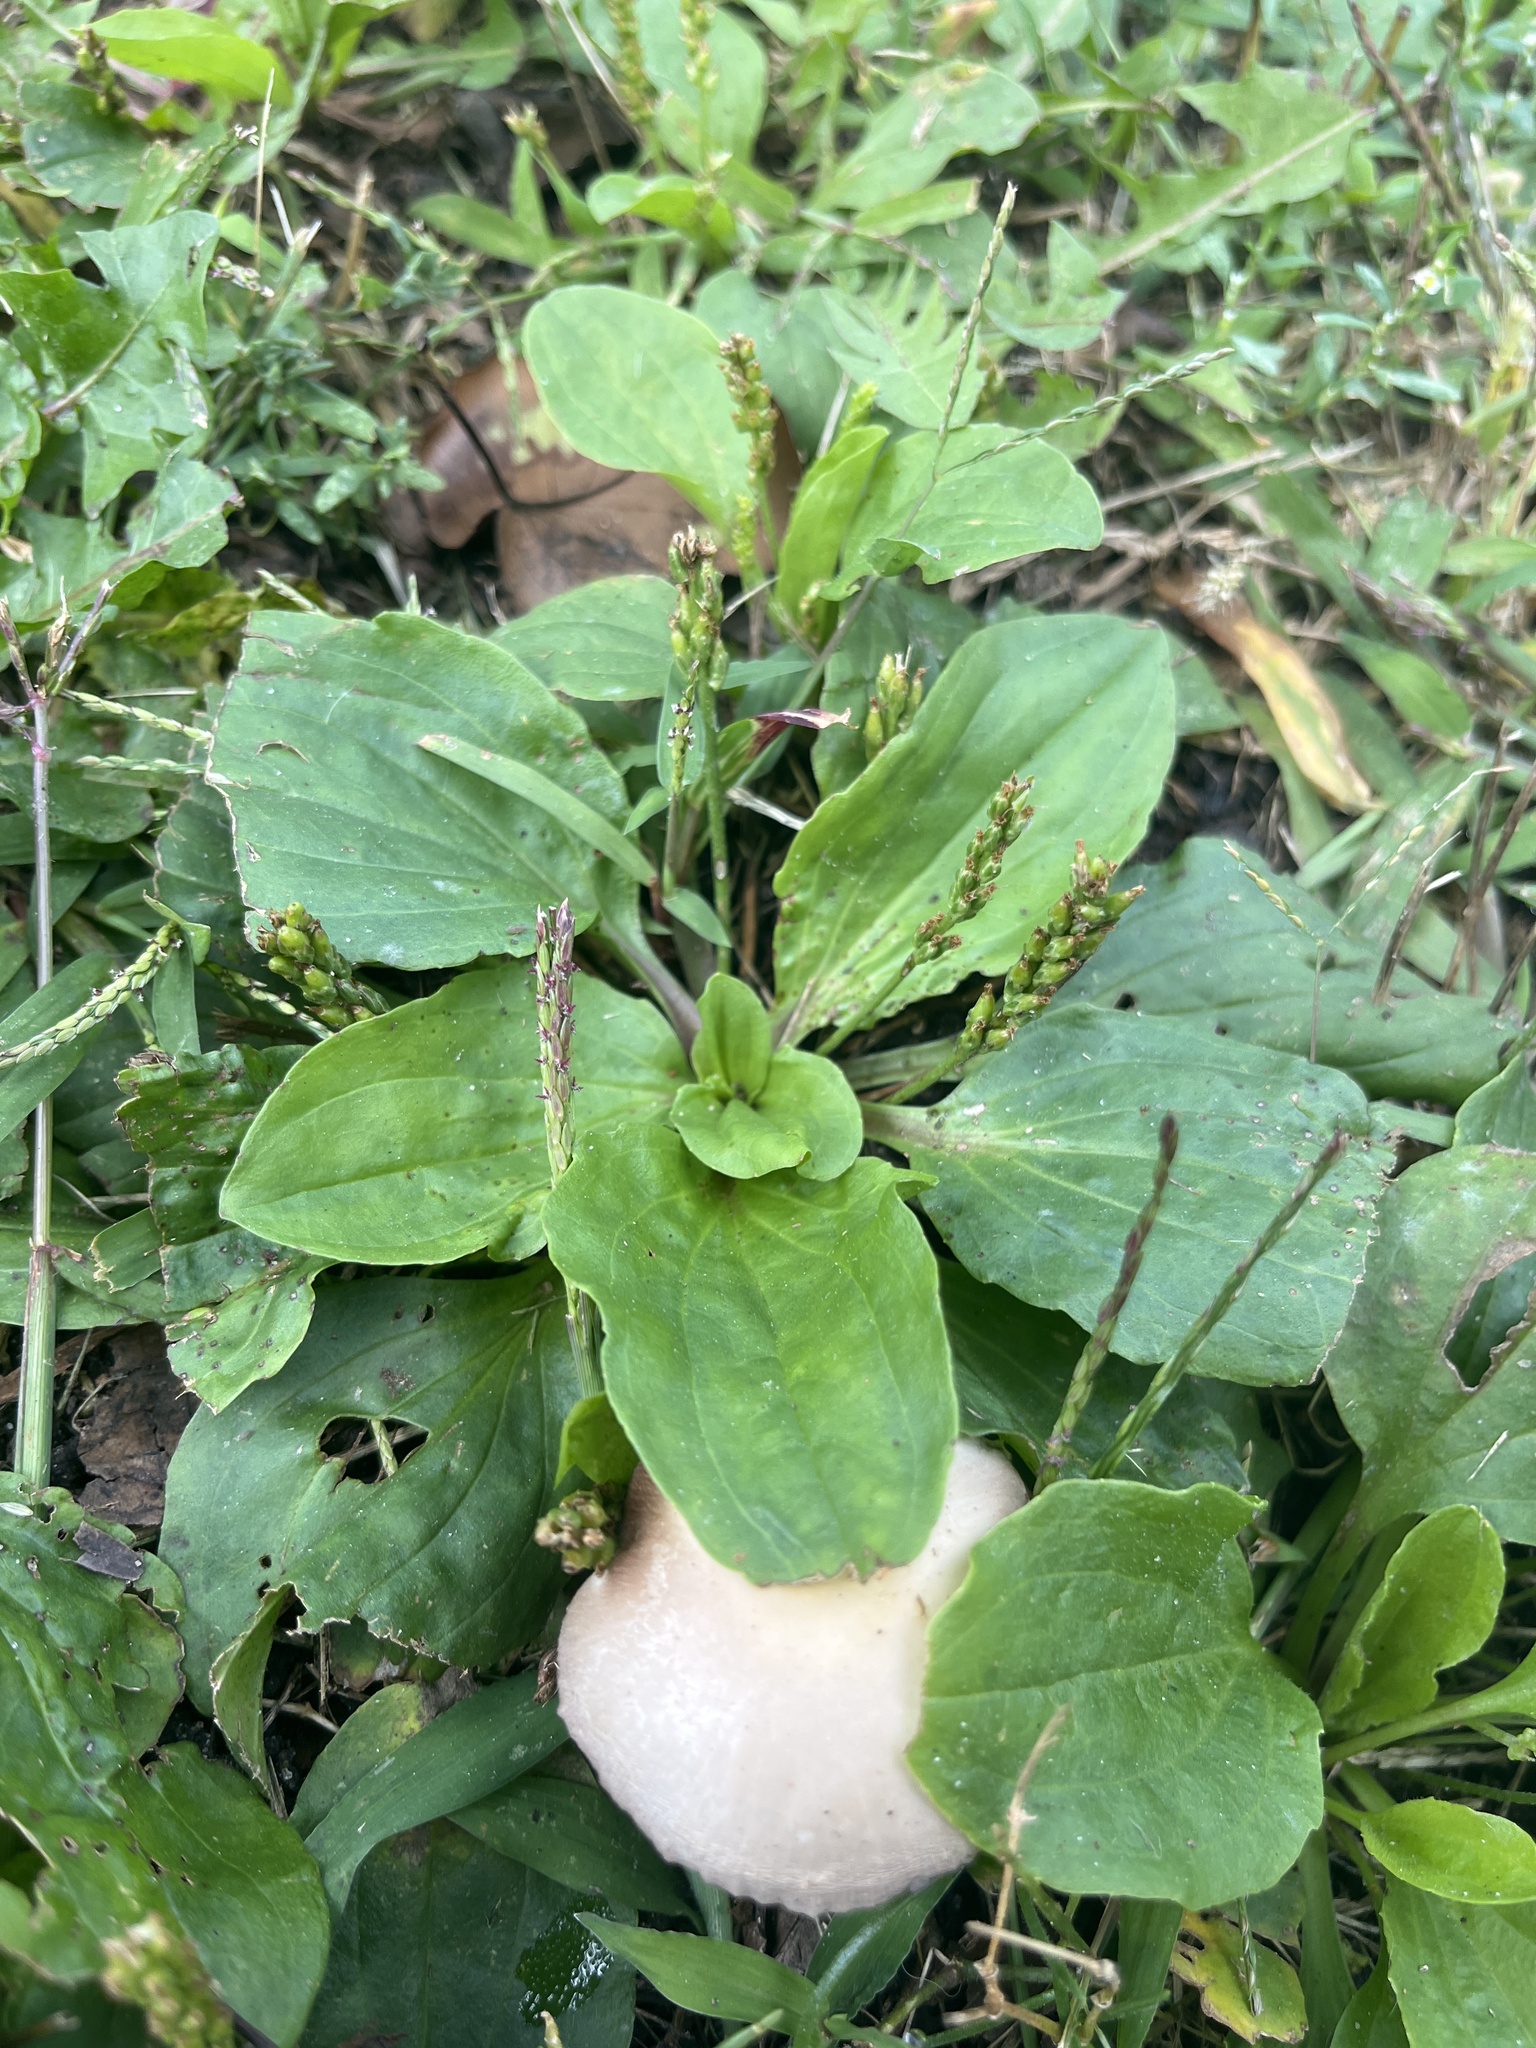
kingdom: Plantae
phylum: Tracheophyta
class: Magnoliopsida
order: Lamiales
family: Plantaginaceae
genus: Plantago
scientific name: Plantago major
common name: Common plantain
